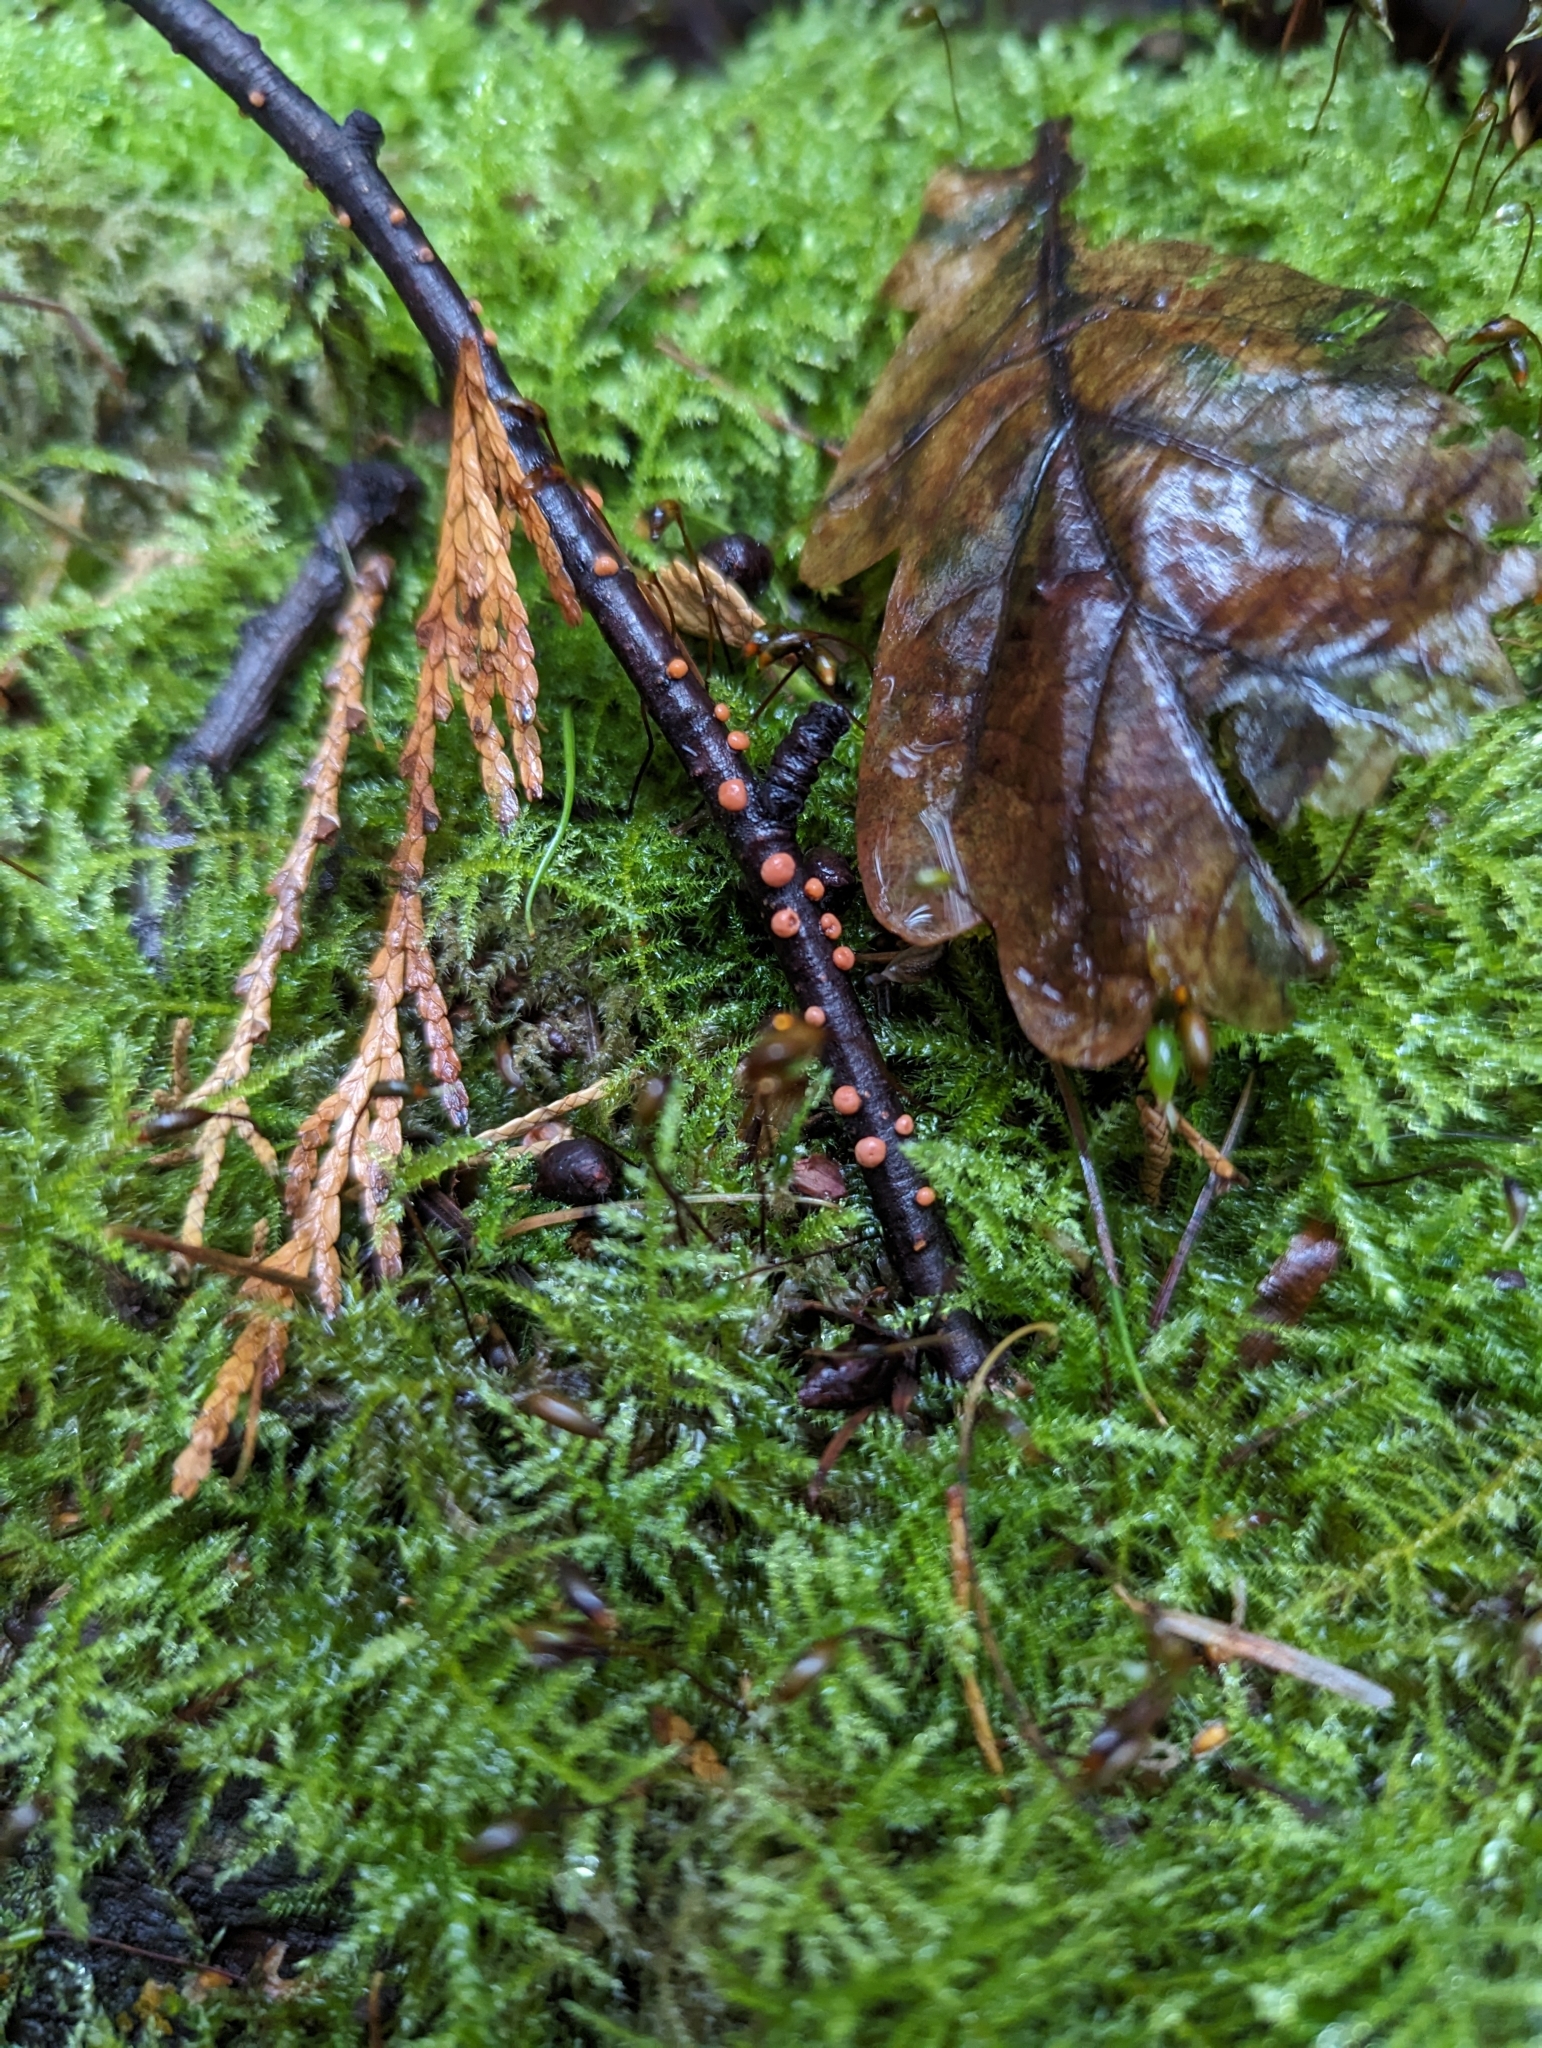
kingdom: Fungi
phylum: Ascomycota
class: Sordariomycetes
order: Hypocreales
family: Nectriaceae
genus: Nectria
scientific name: Nectria cinnabarina
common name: Coral spot
